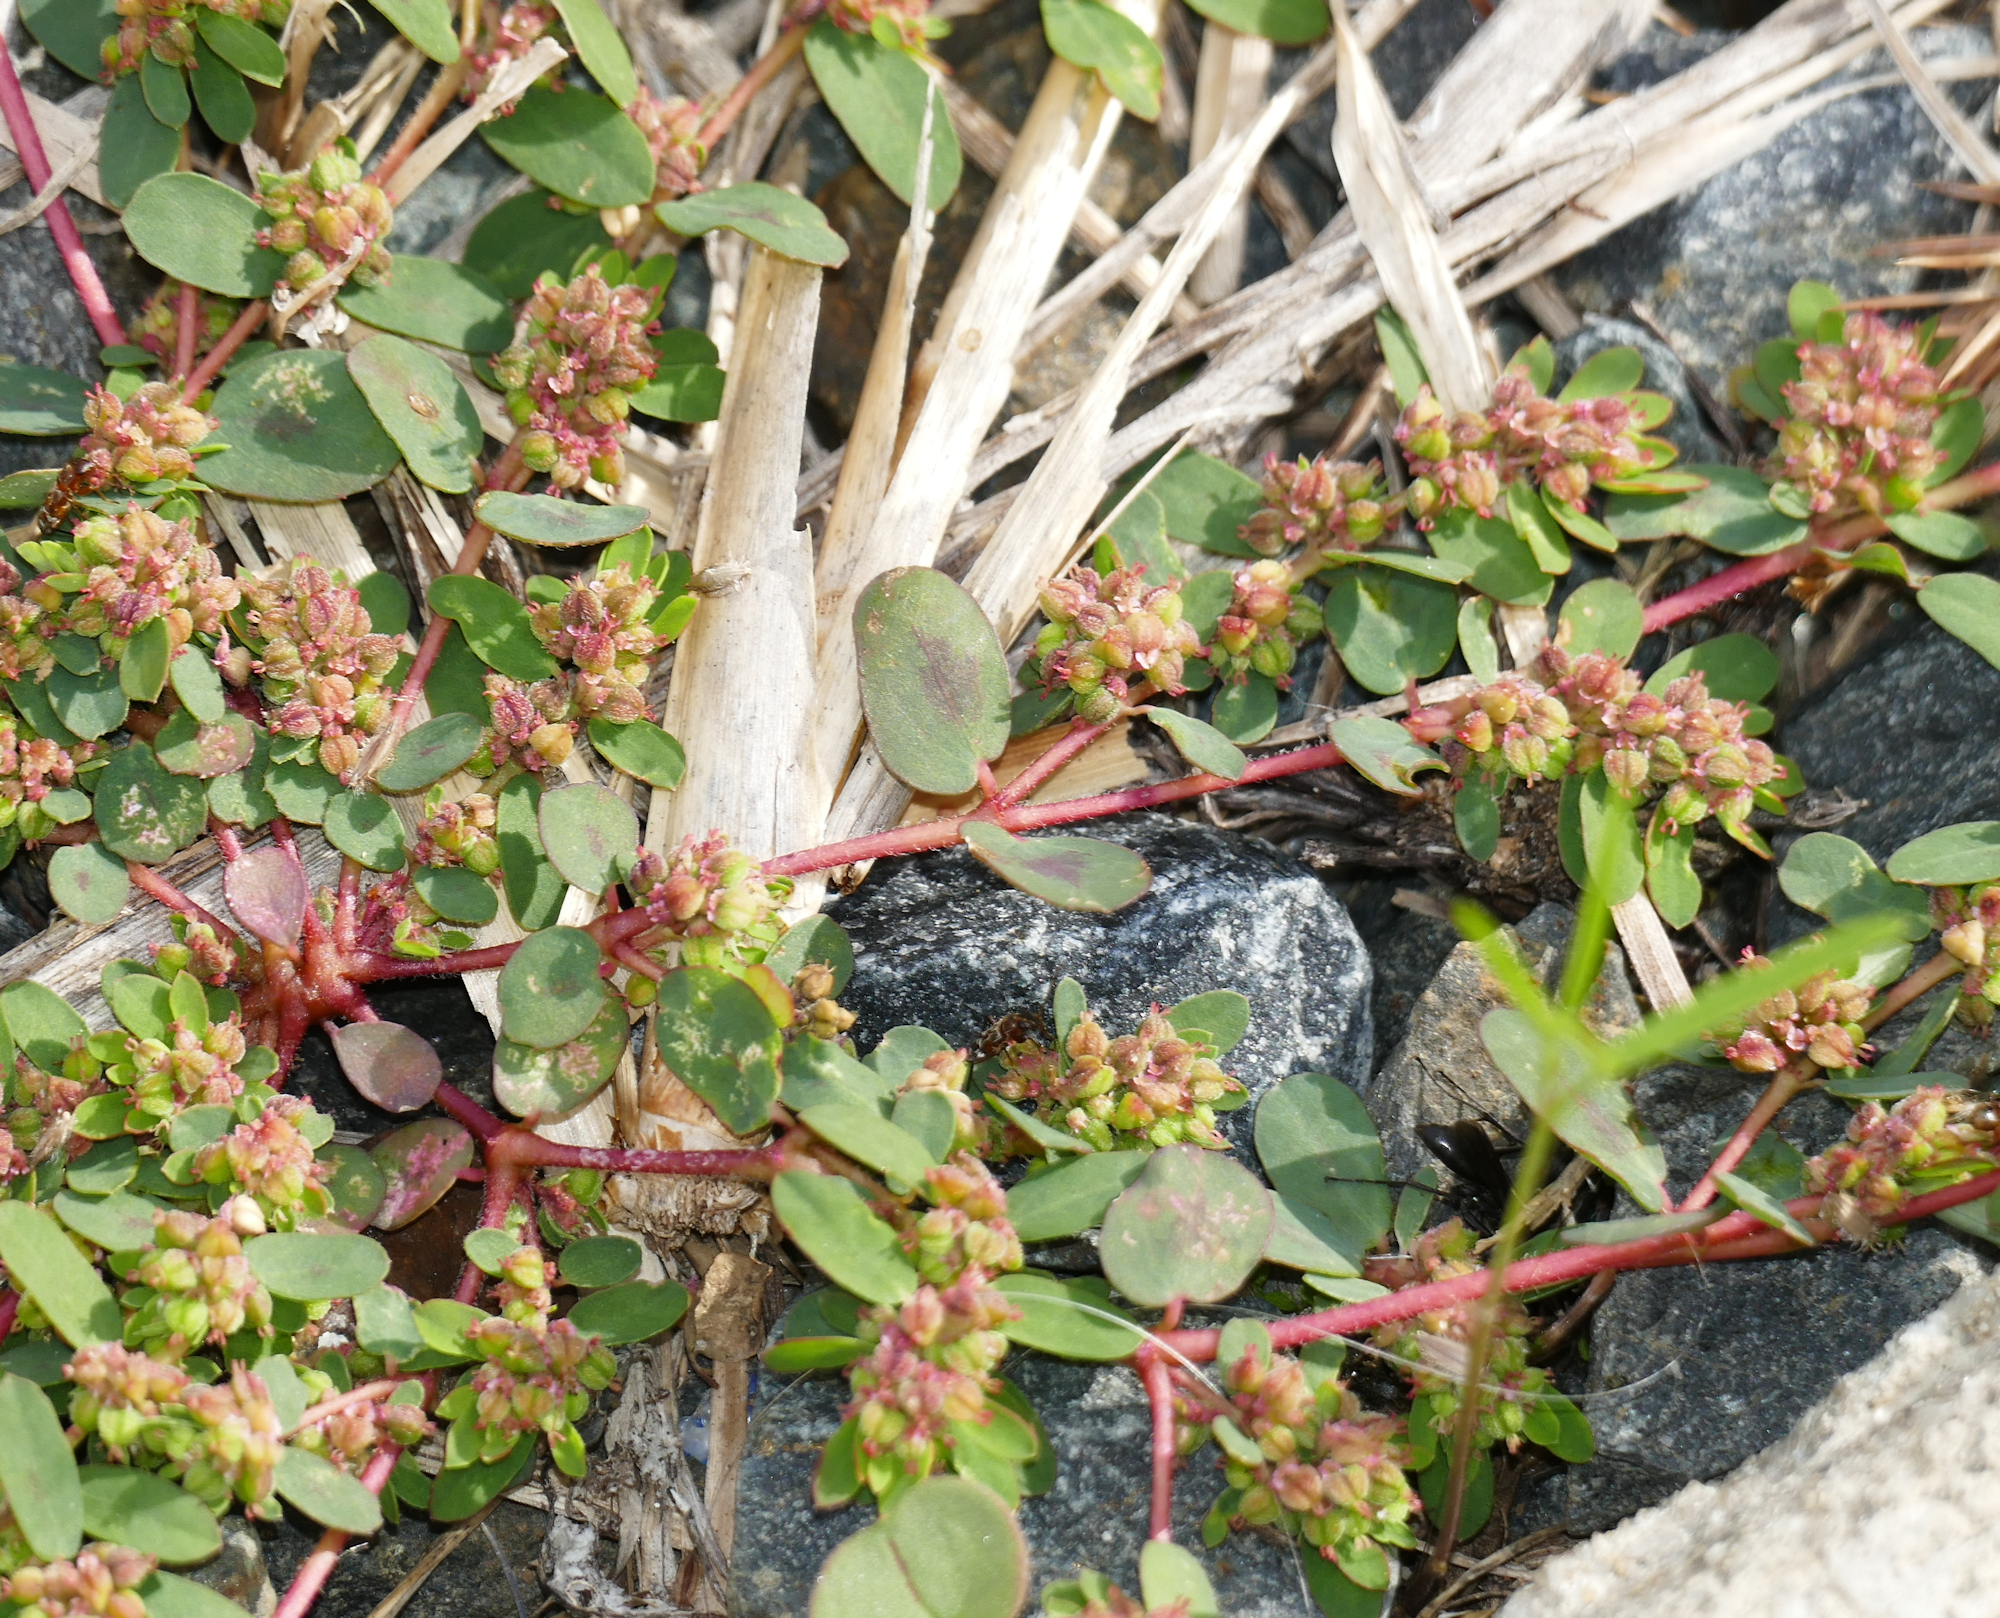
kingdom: Plantae
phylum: Tracheophyta
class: Magnoliopsida
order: Malpighiales
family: Euphorbiaceae
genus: Euphorbia
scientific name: Euphorbia humistrata
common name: Hairy spreading spurge
